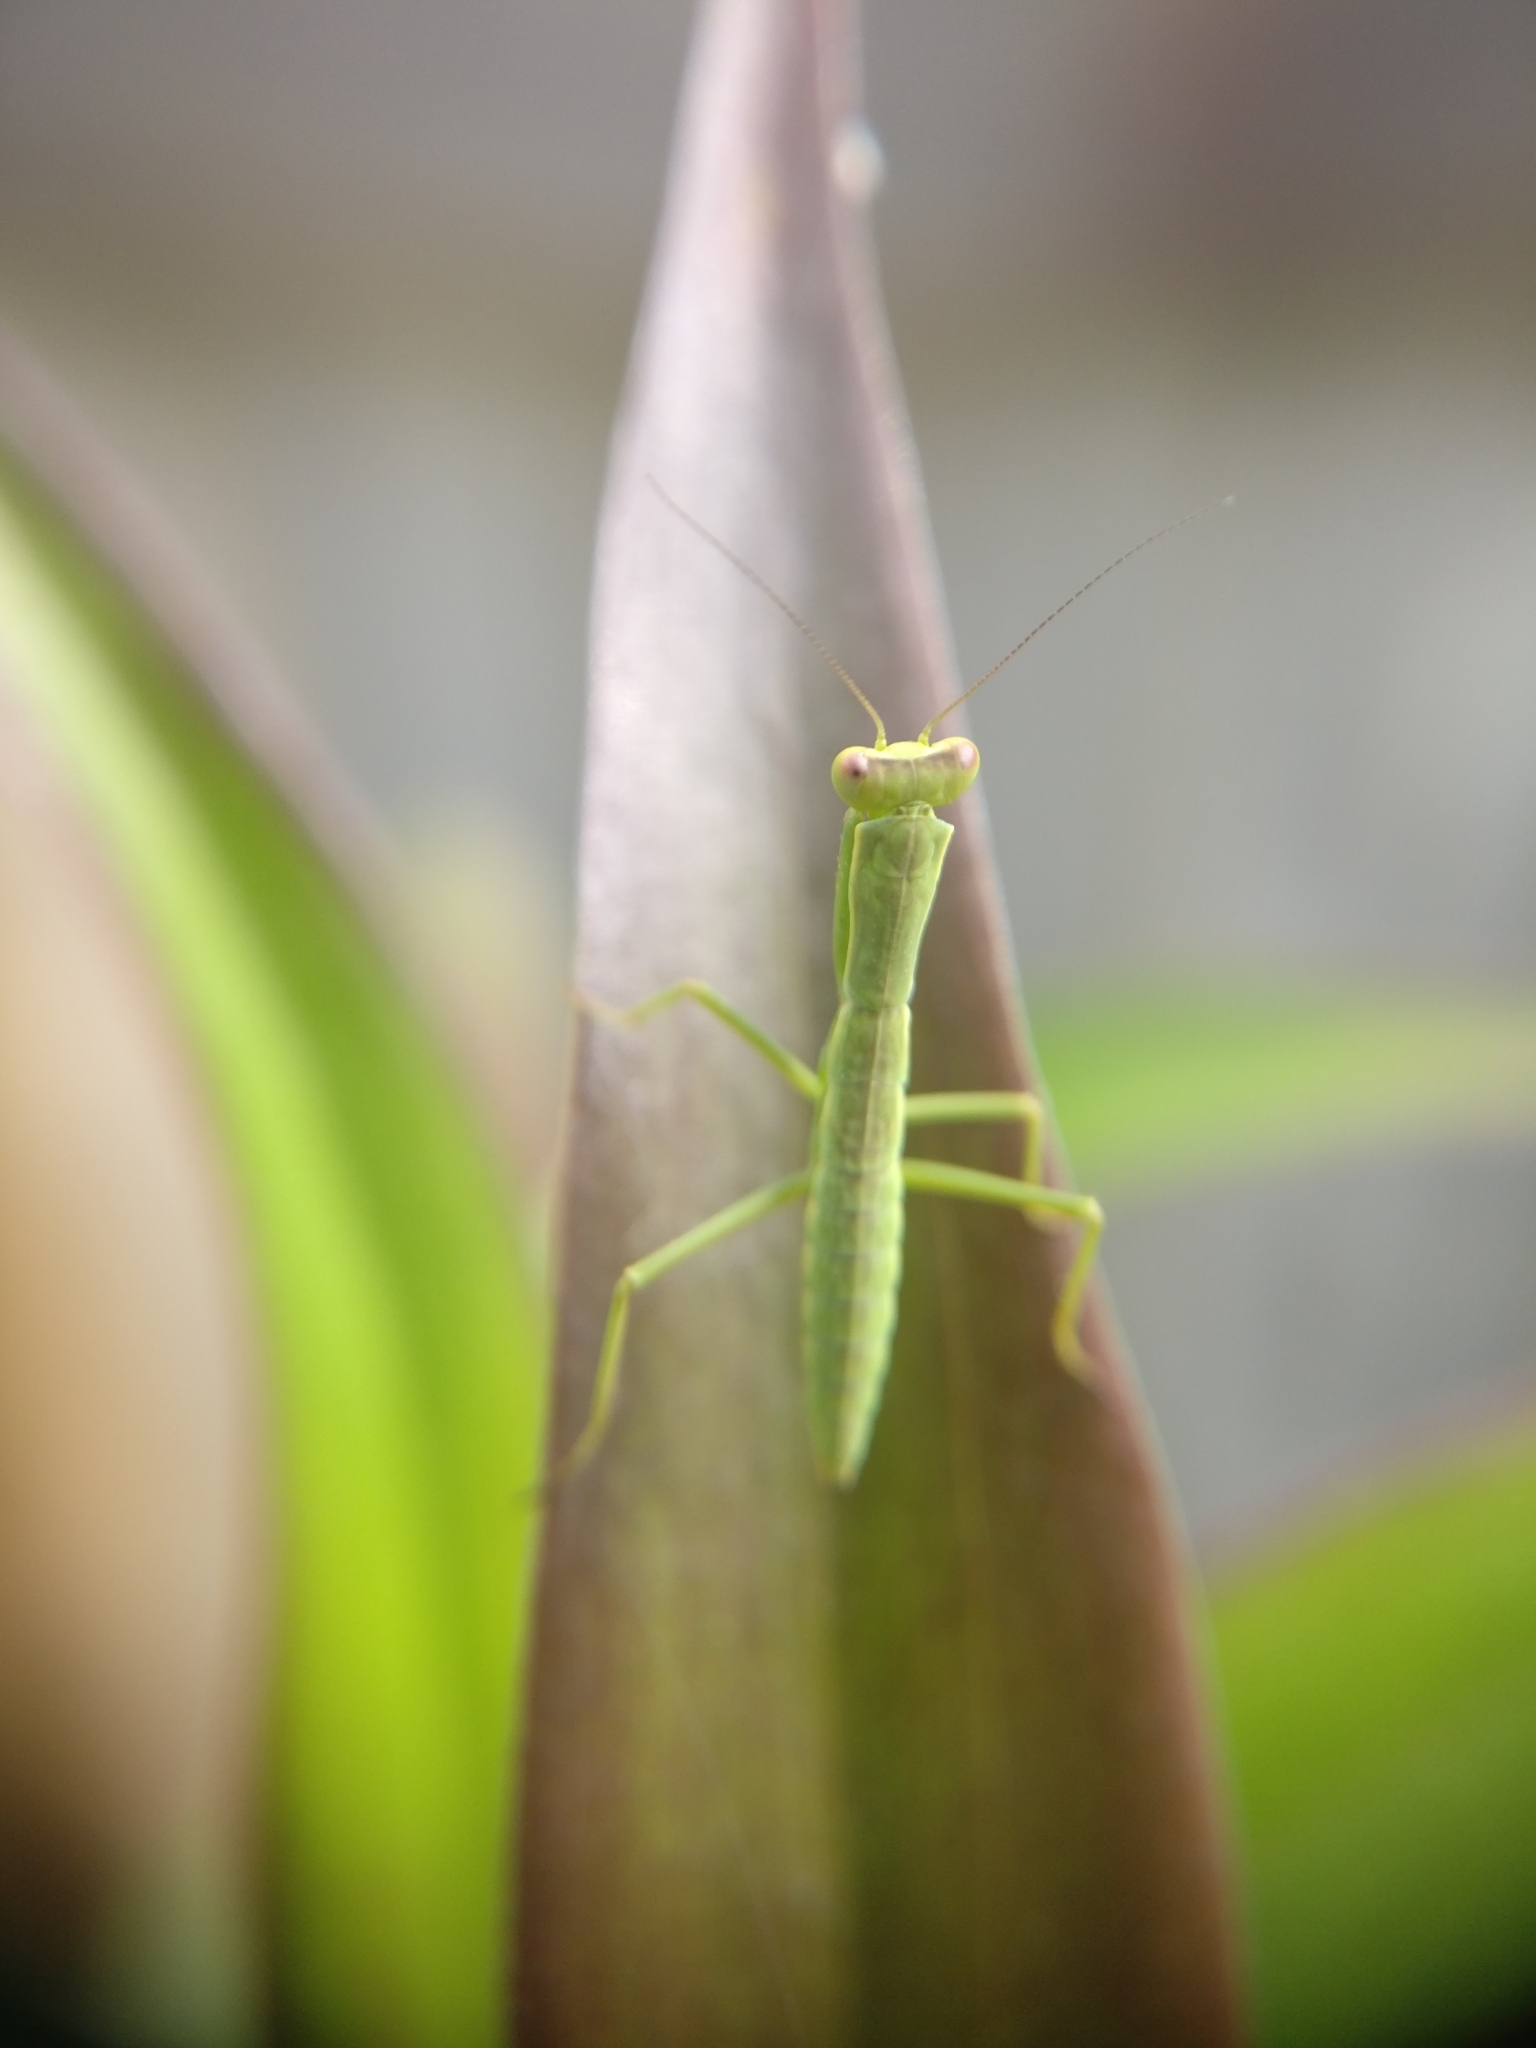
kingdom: Animalia
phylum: Arthropoda
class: Insecta
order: Mantodea
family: Mantidae
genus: Orthodera
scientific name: Orthodera novaezealandiae
